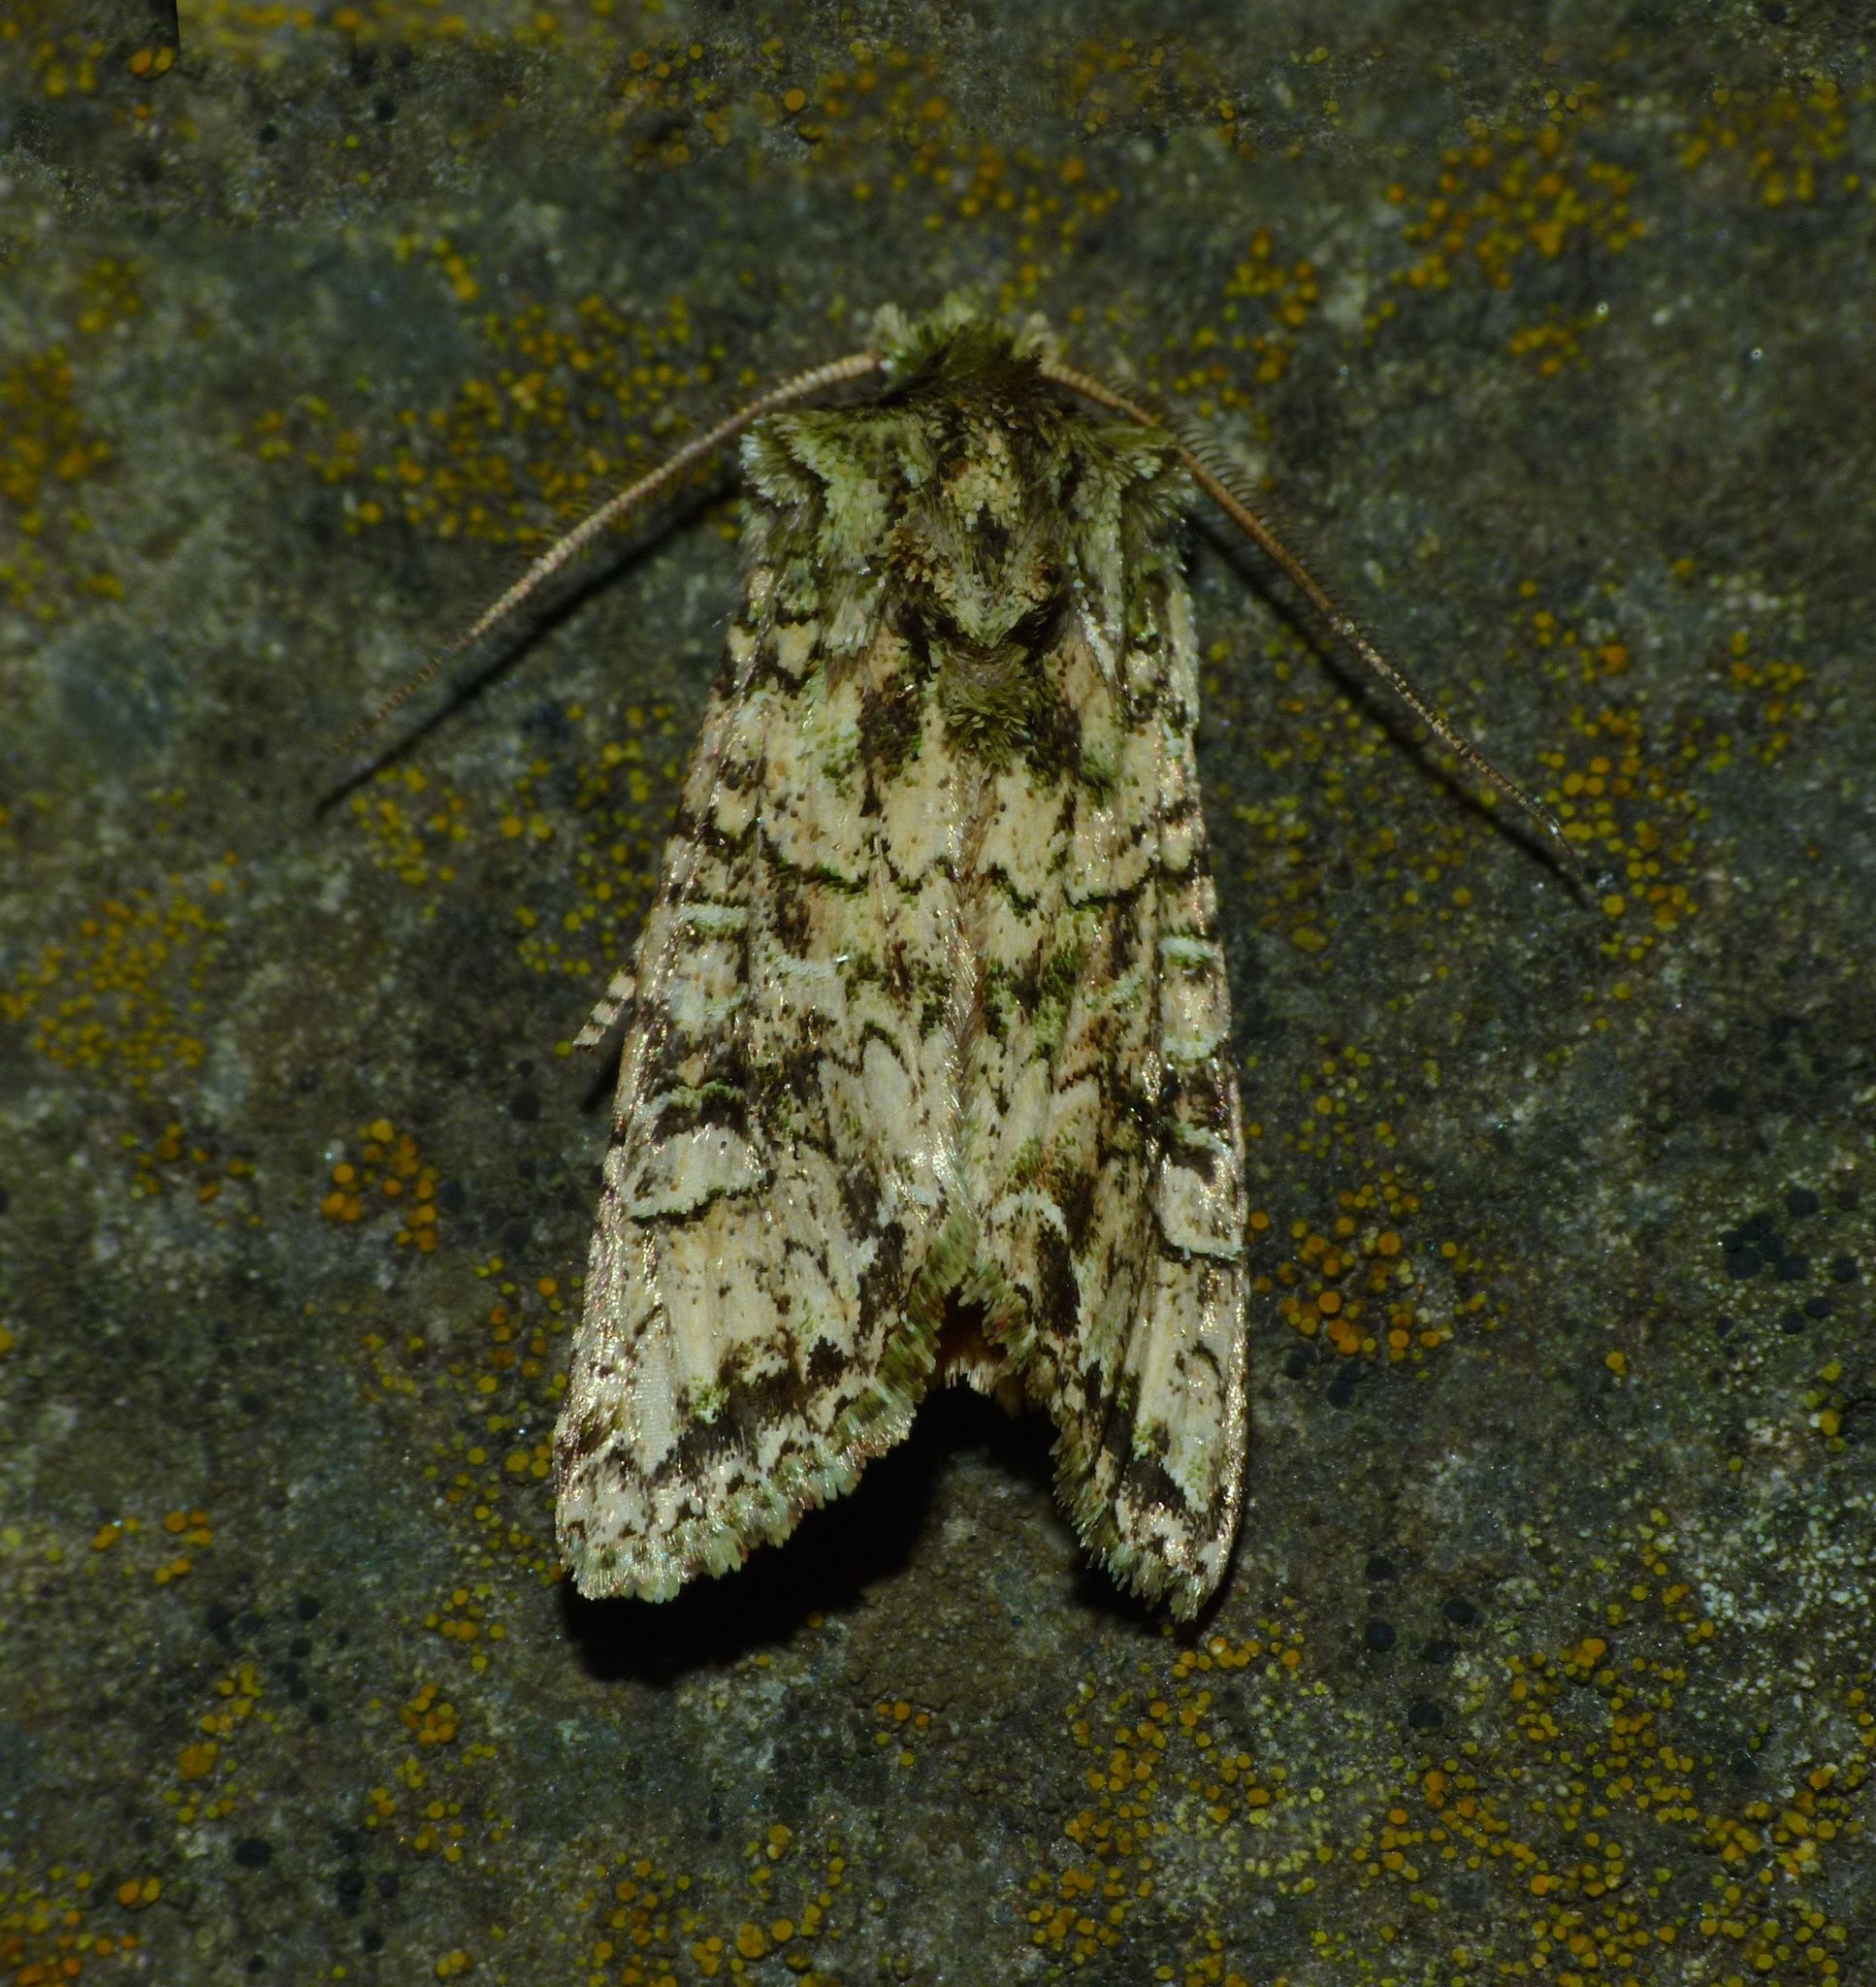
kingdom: Animalia
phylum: Arthropoda
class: Insecta
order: Lepidoptera
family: Noctuidae
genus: Ichneutica
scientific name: Ichneutica
